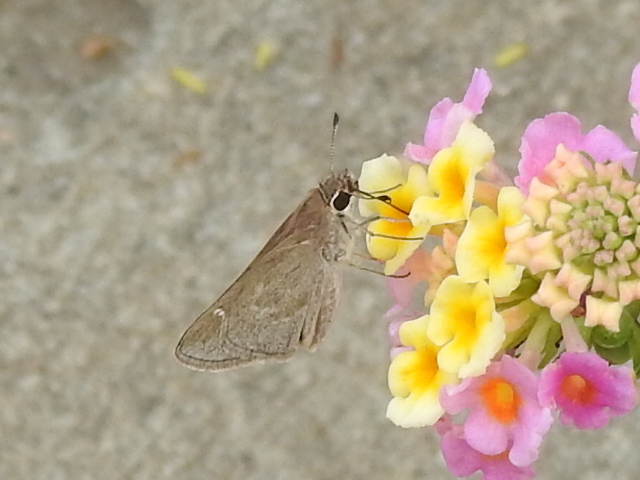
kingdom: Animalia
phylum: Arthropoda
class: Insecta
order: Lepidoptera
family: Hesperiidae
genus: Lerodea
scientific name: Lerodea eufala
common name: Eufala skipper
